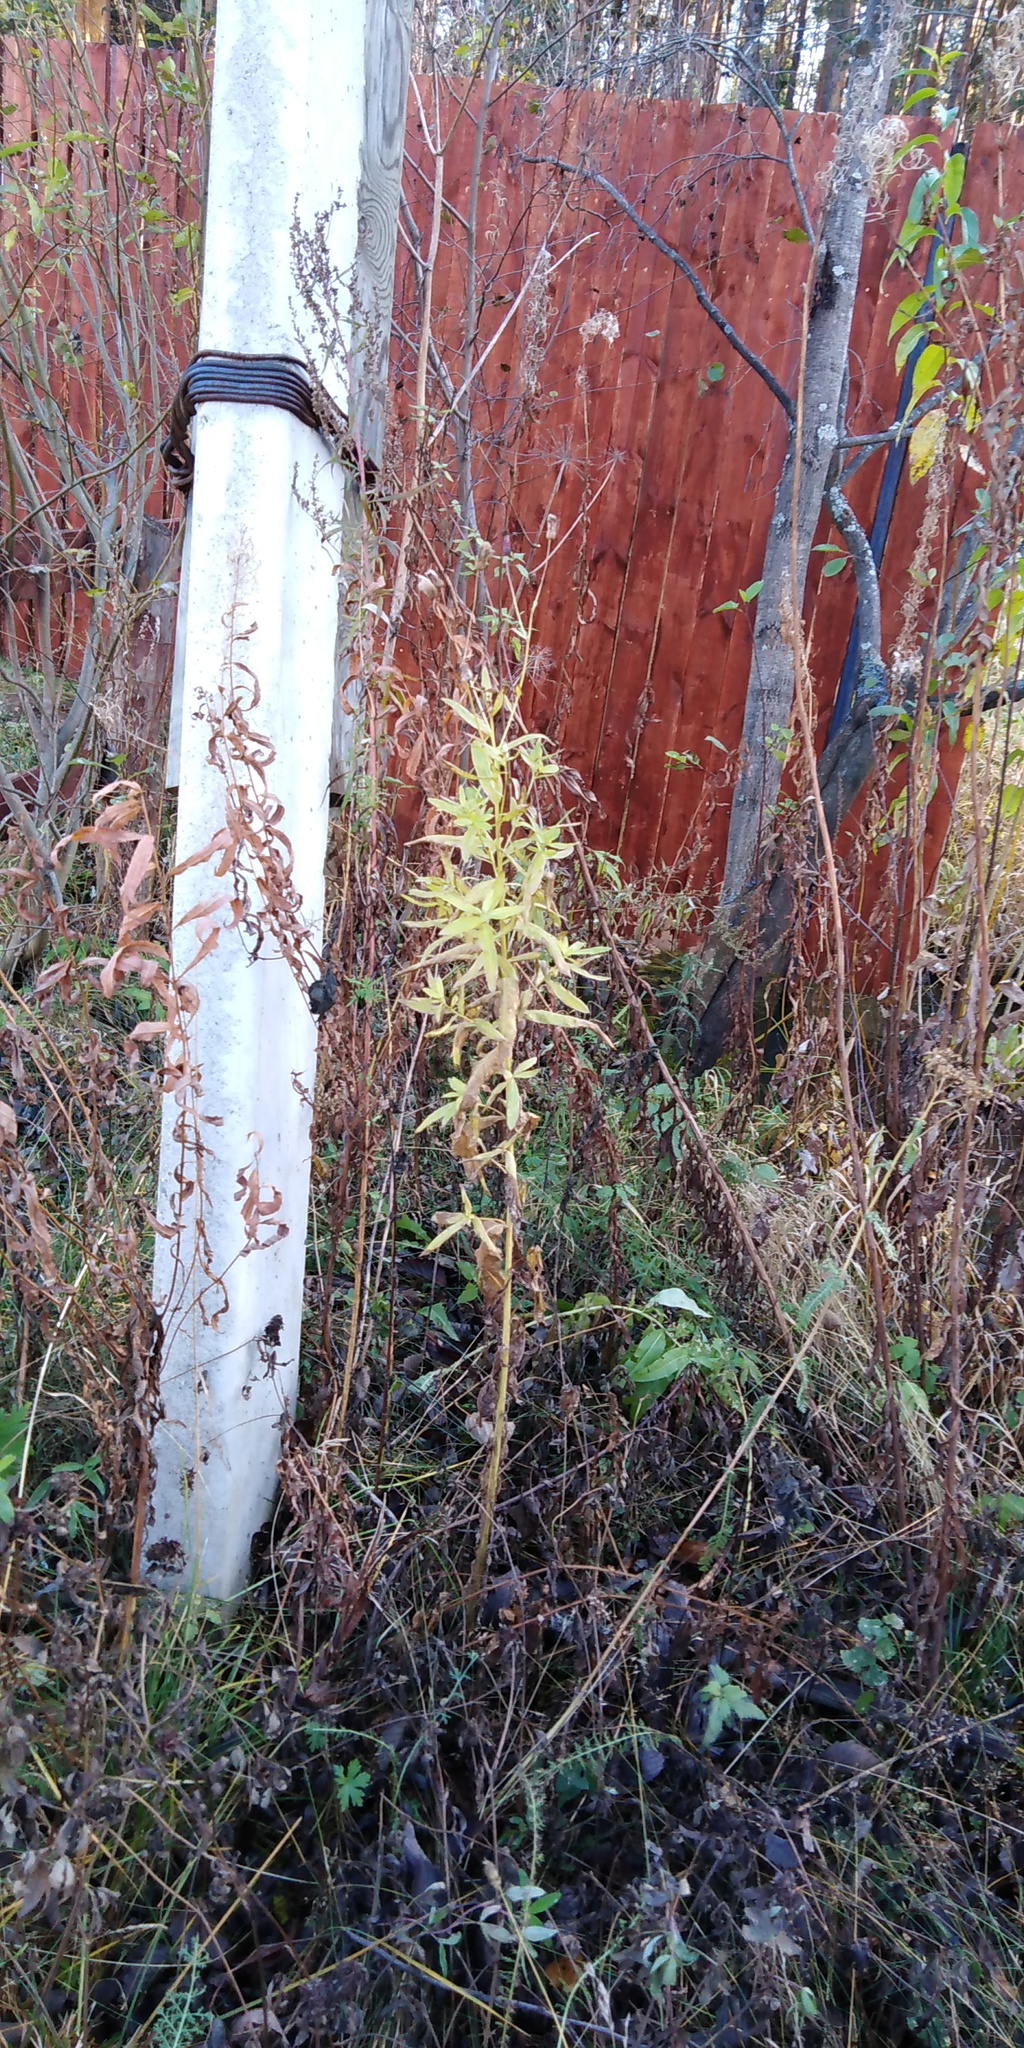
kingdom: Plantae
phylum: Tracheophyta
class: Magnoliopsida
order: Asterales
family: Asteraceae
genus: Cirsium
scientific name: Cirsium arvense
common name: Creeping thistle
